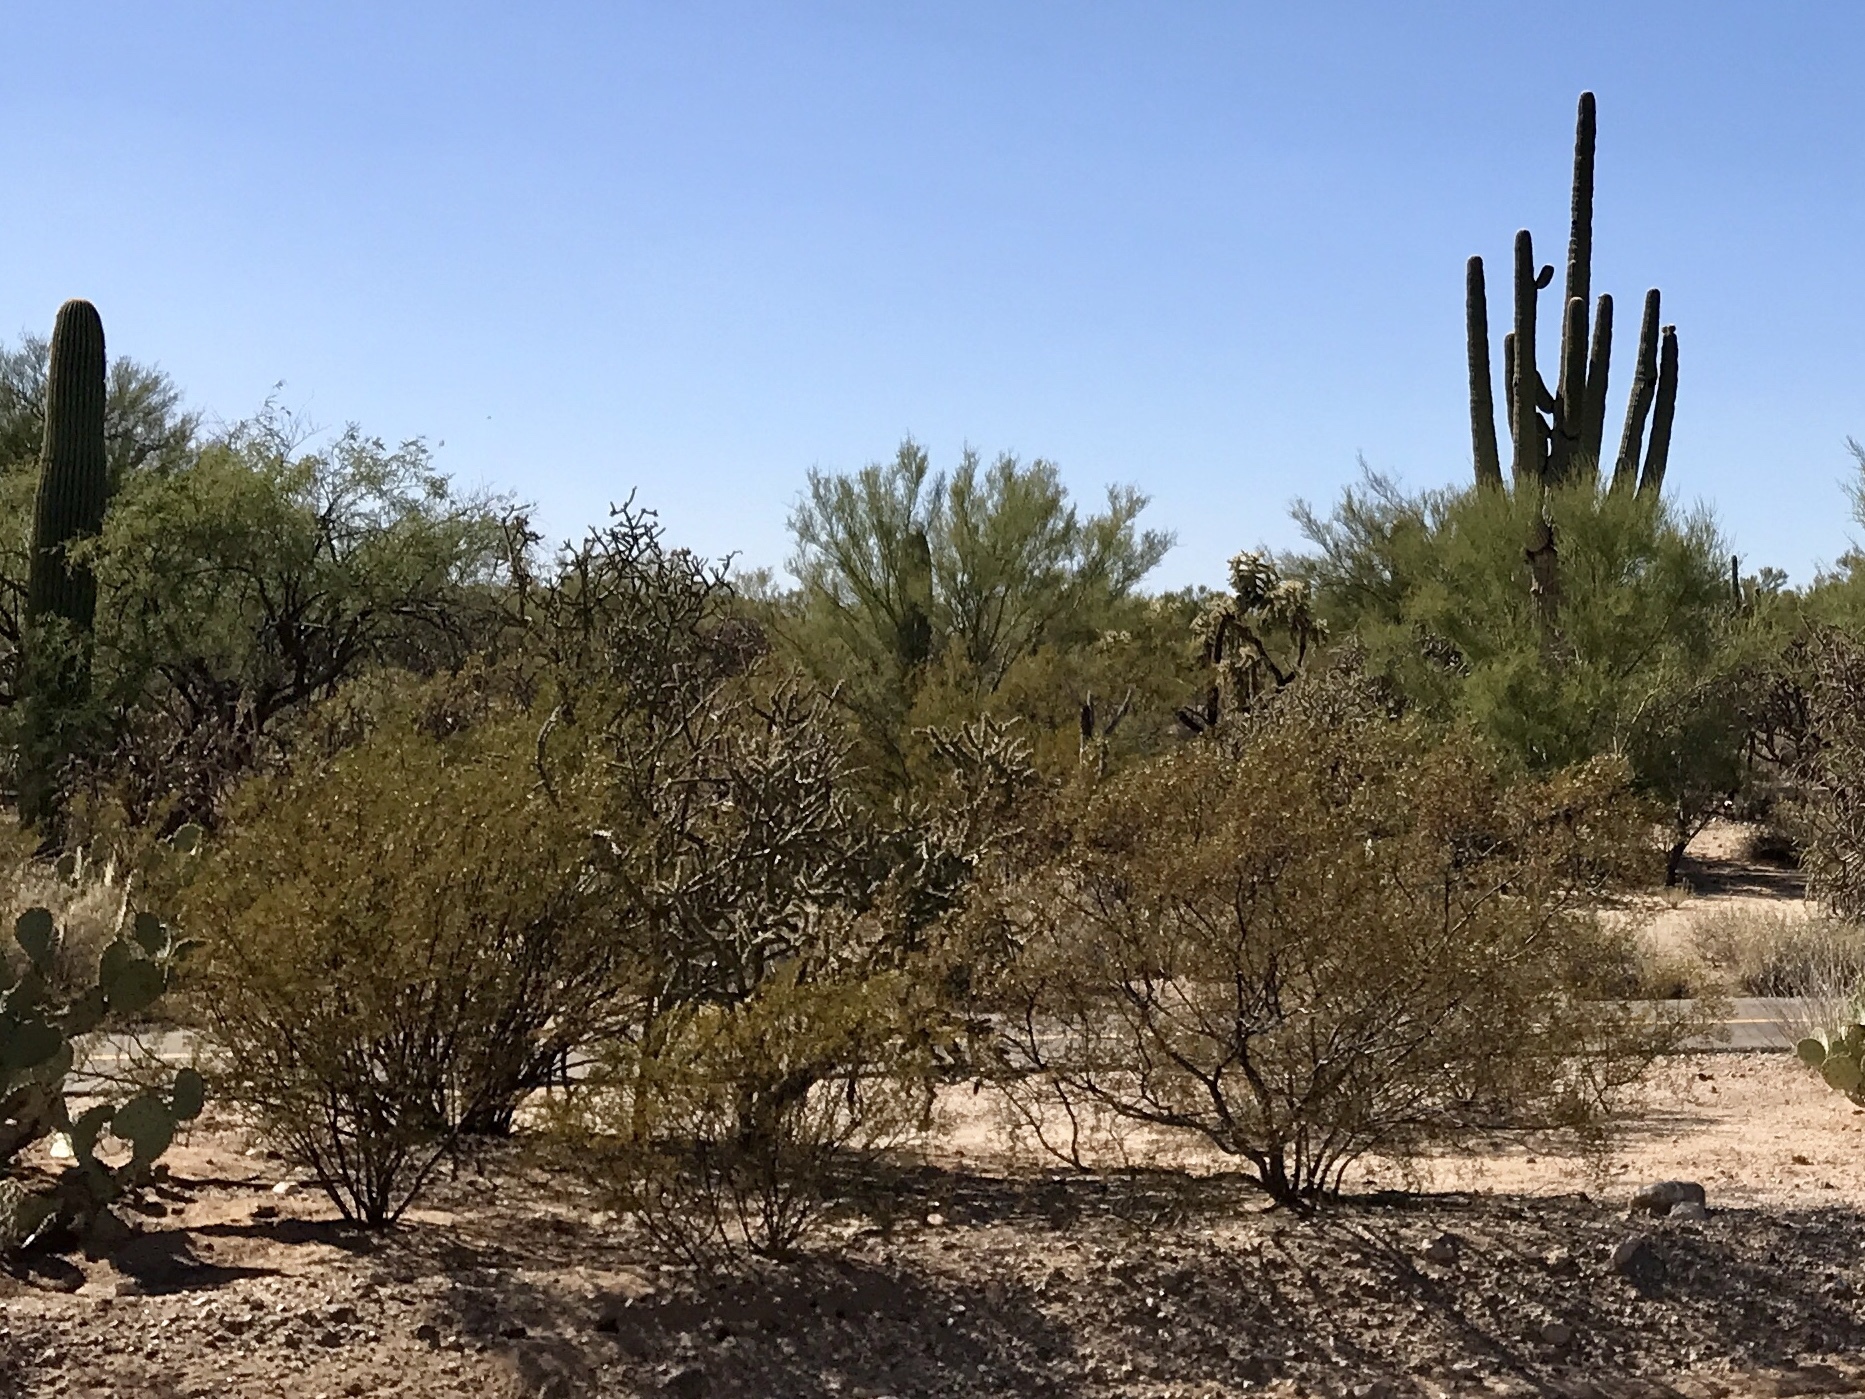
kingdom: Plantae
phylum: Tracheophyta
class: Magnoliopsida
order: Zygophyllales
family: Zygophyllaceae
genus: Larrea
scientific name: Larrea tridentata
